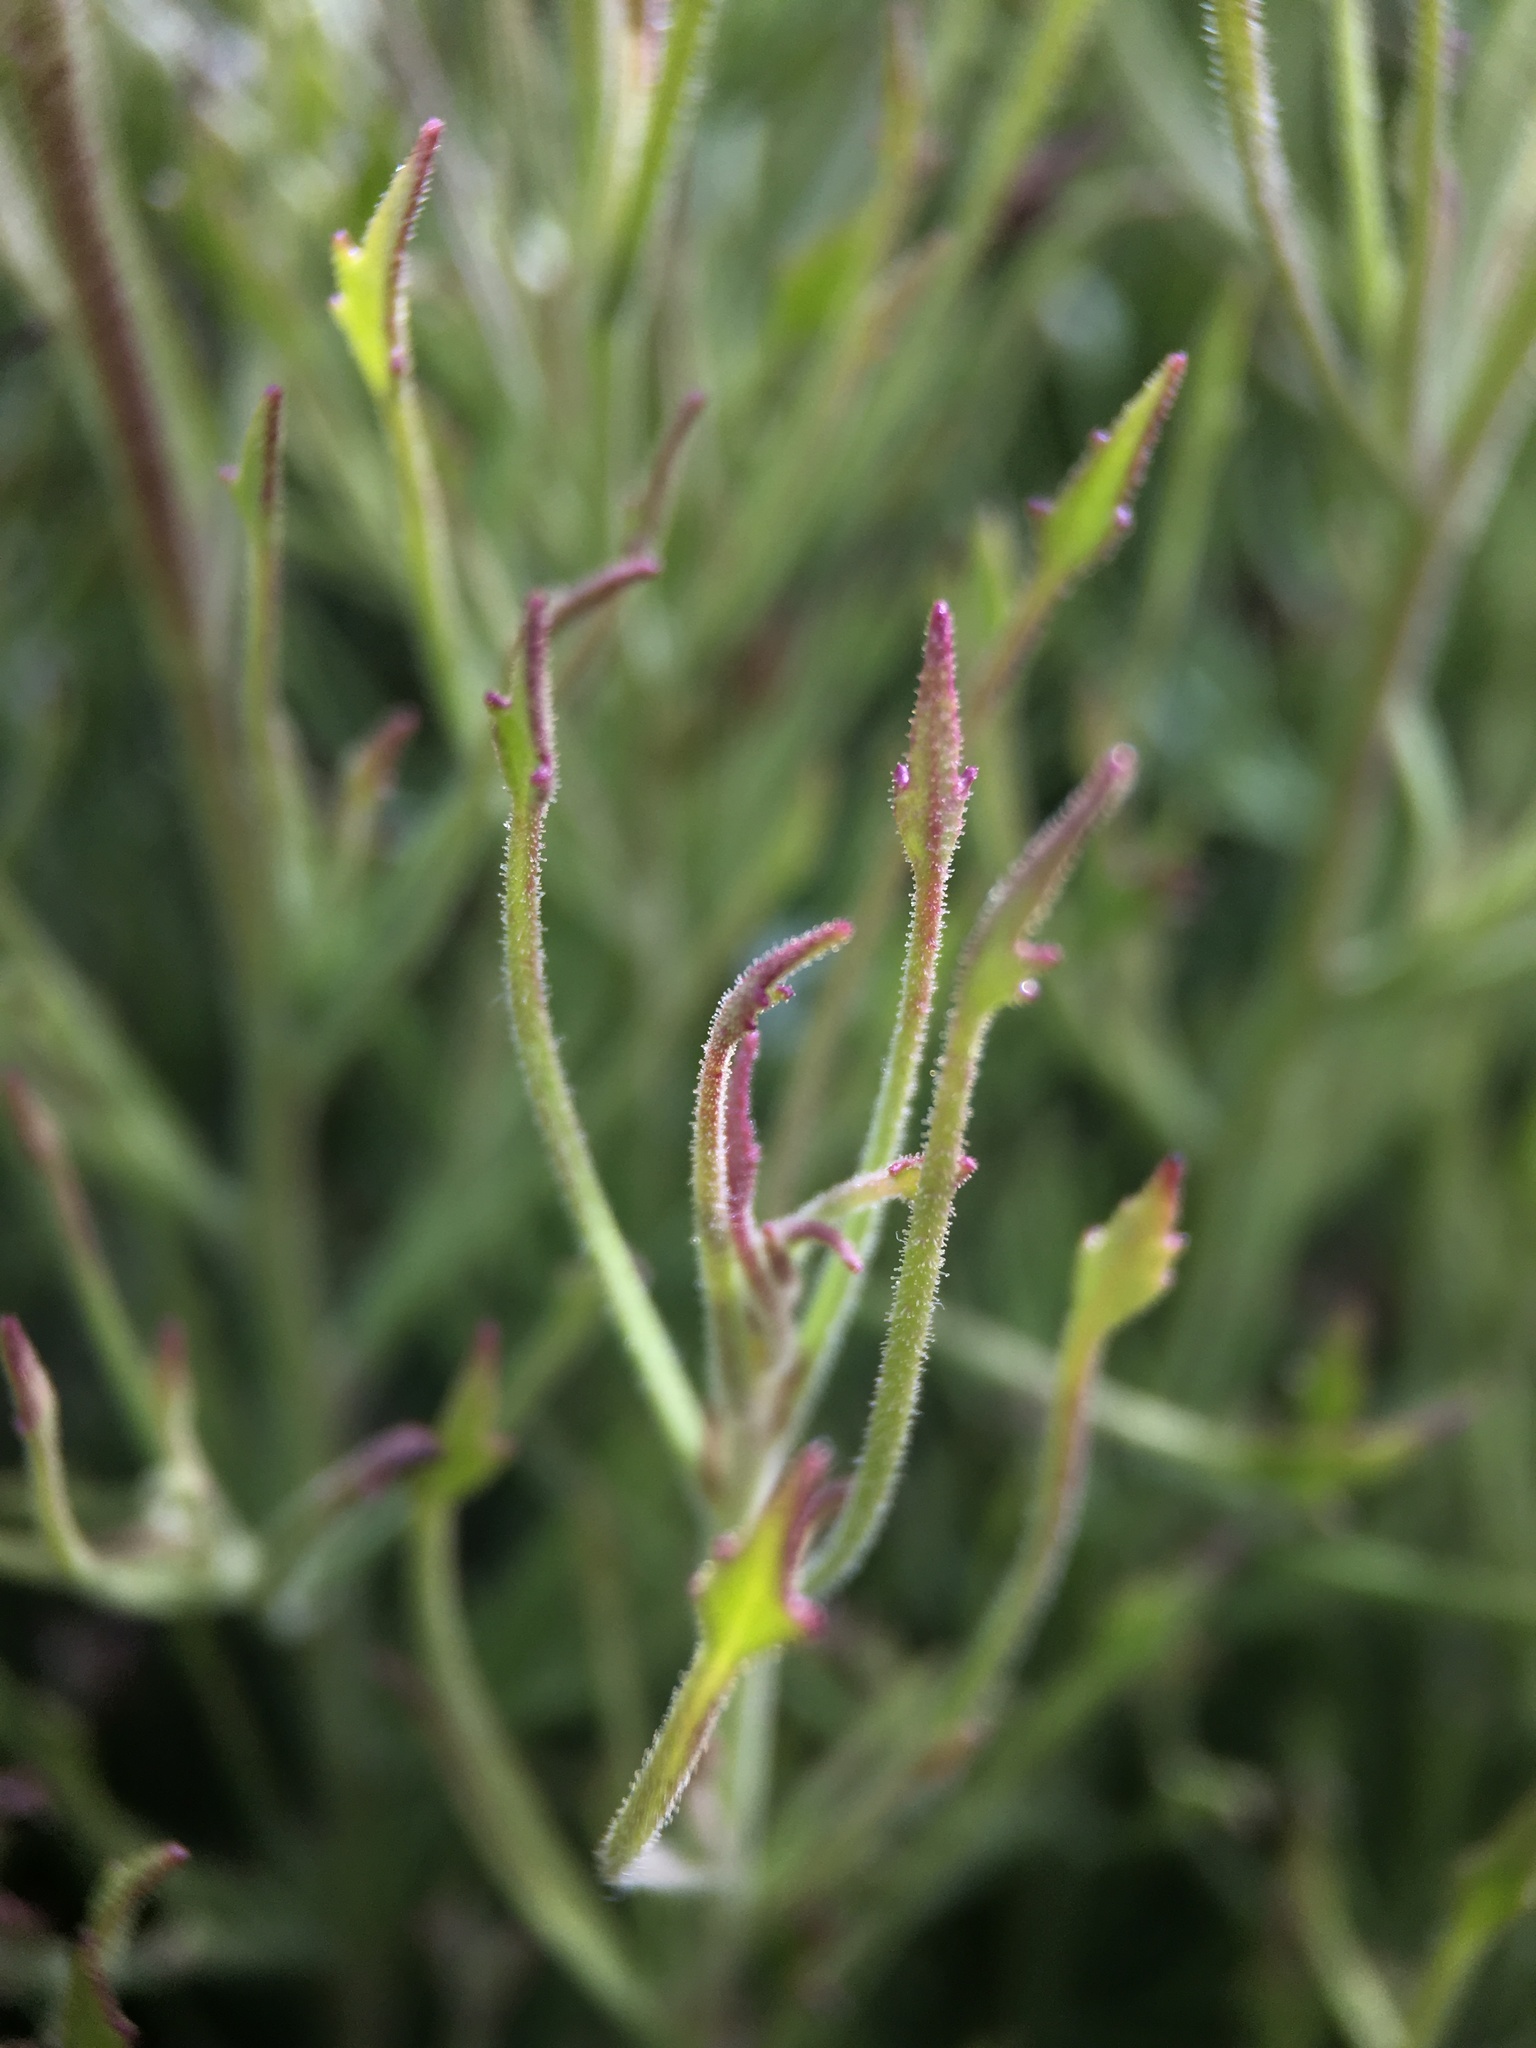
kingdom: Plantae
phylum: Tracheophyta
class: Magnoliopsida
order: Asterales
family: Asteraceae
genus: Pleurocoronis
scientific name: Pleurocoronis pluriseta
